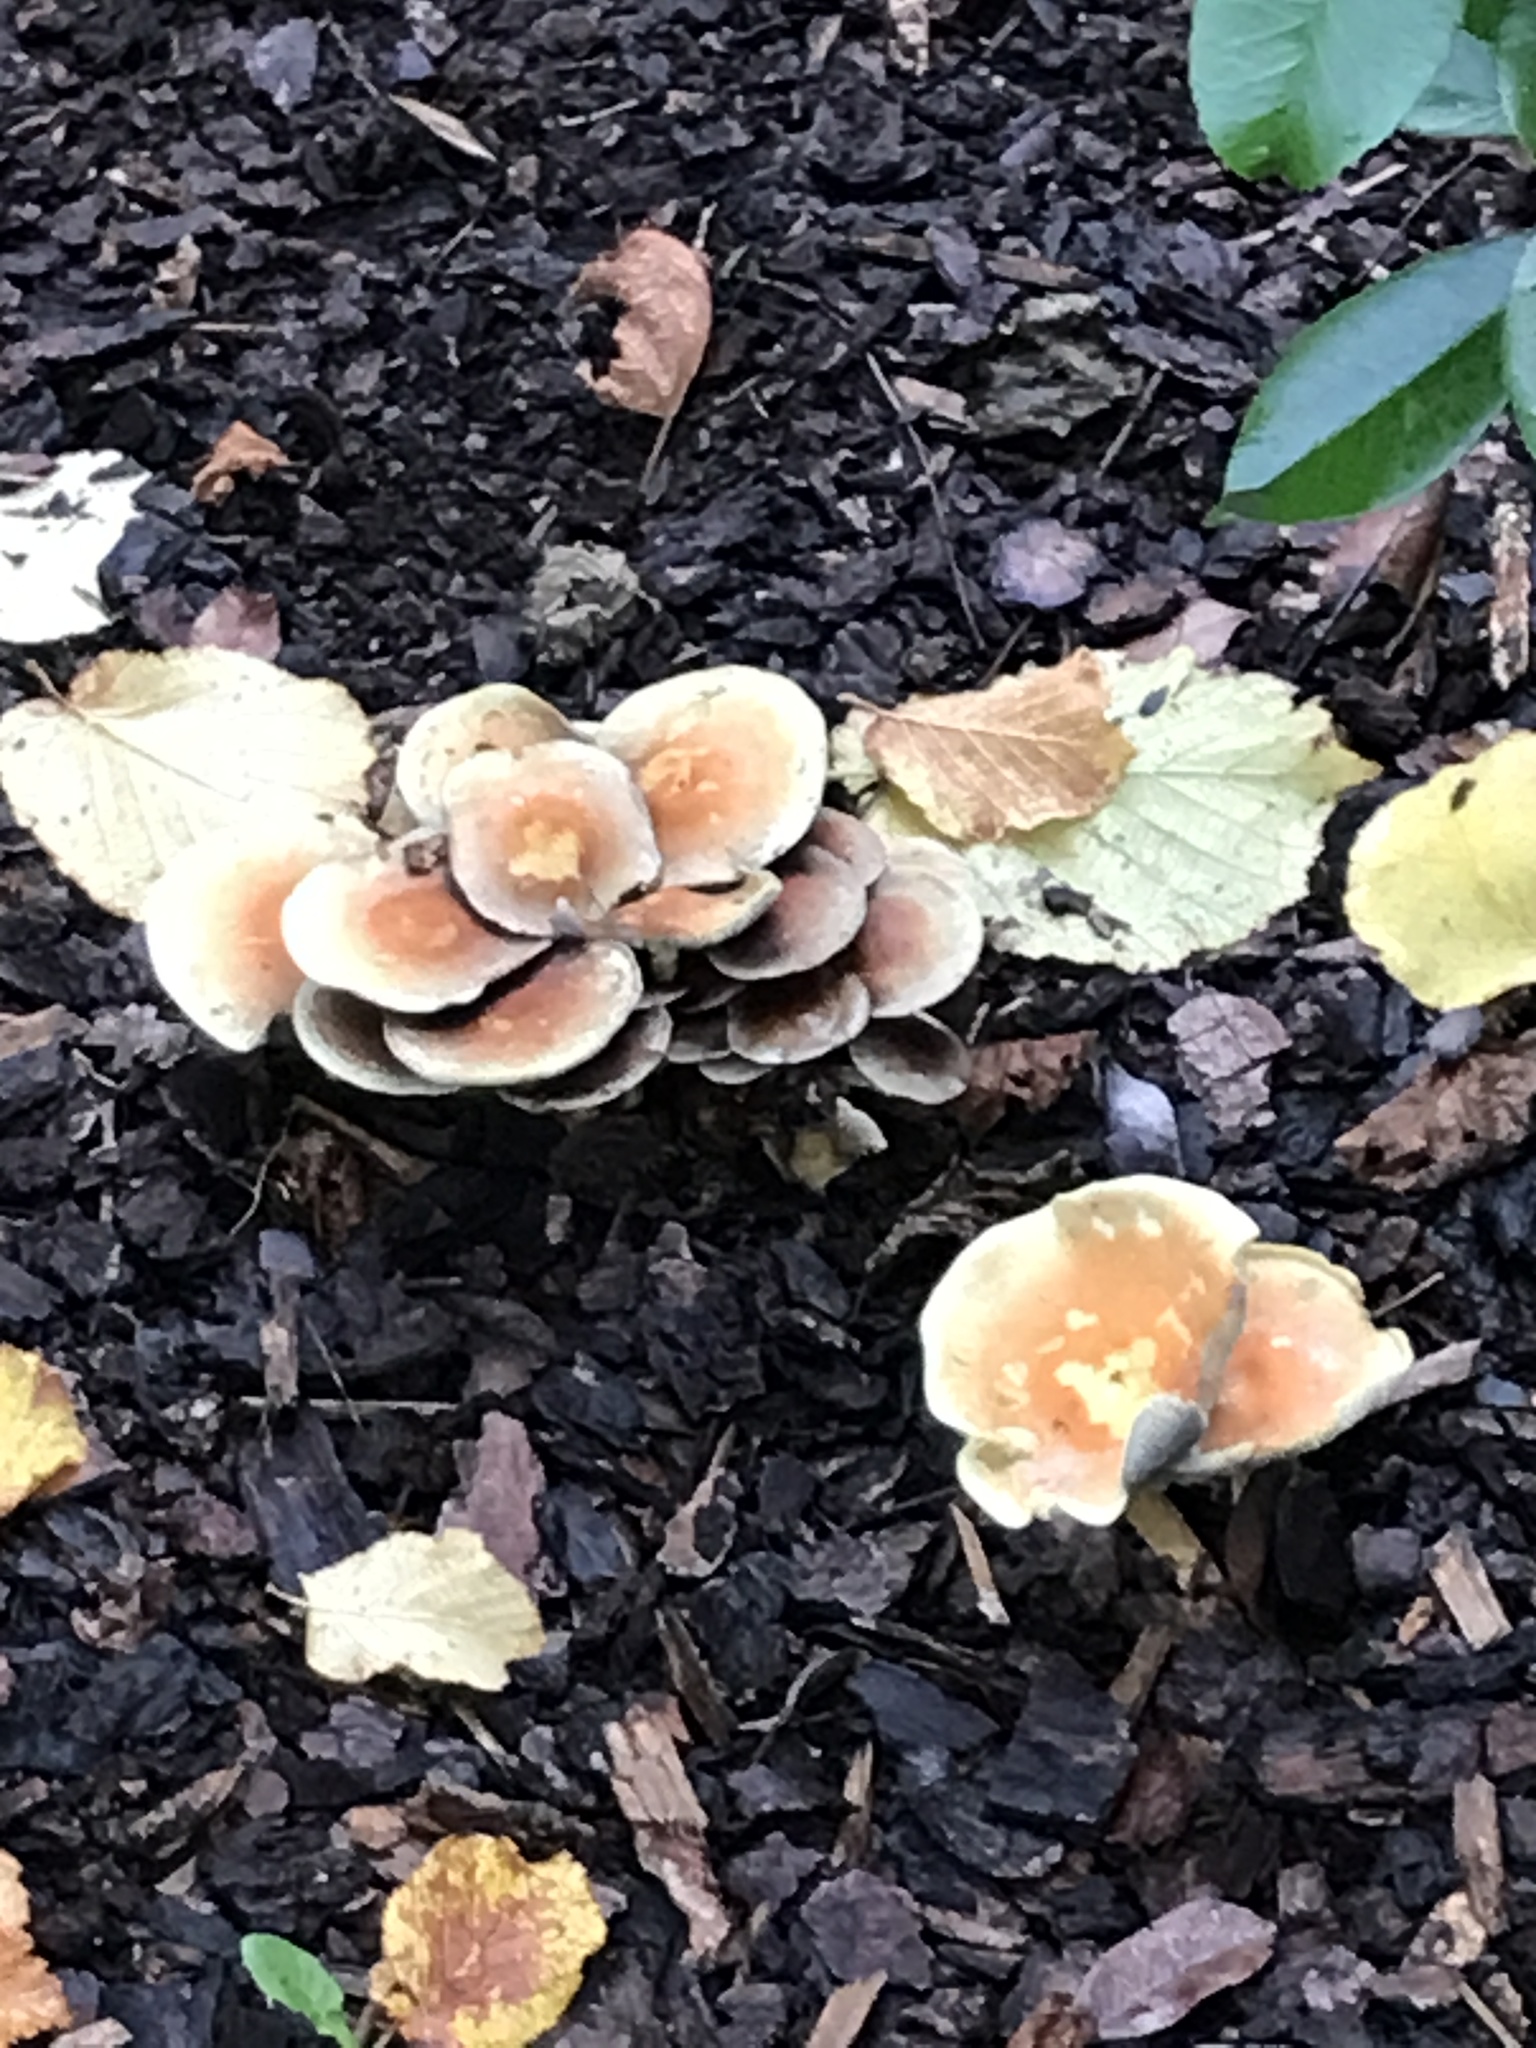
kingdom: Fungi
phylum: Basidiomycota
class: Agaricomycetes
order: Agaricales
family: Strophariaceae
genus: Hypholoma
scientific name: Hypholoma fasciculare
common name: Sulphur tuft
